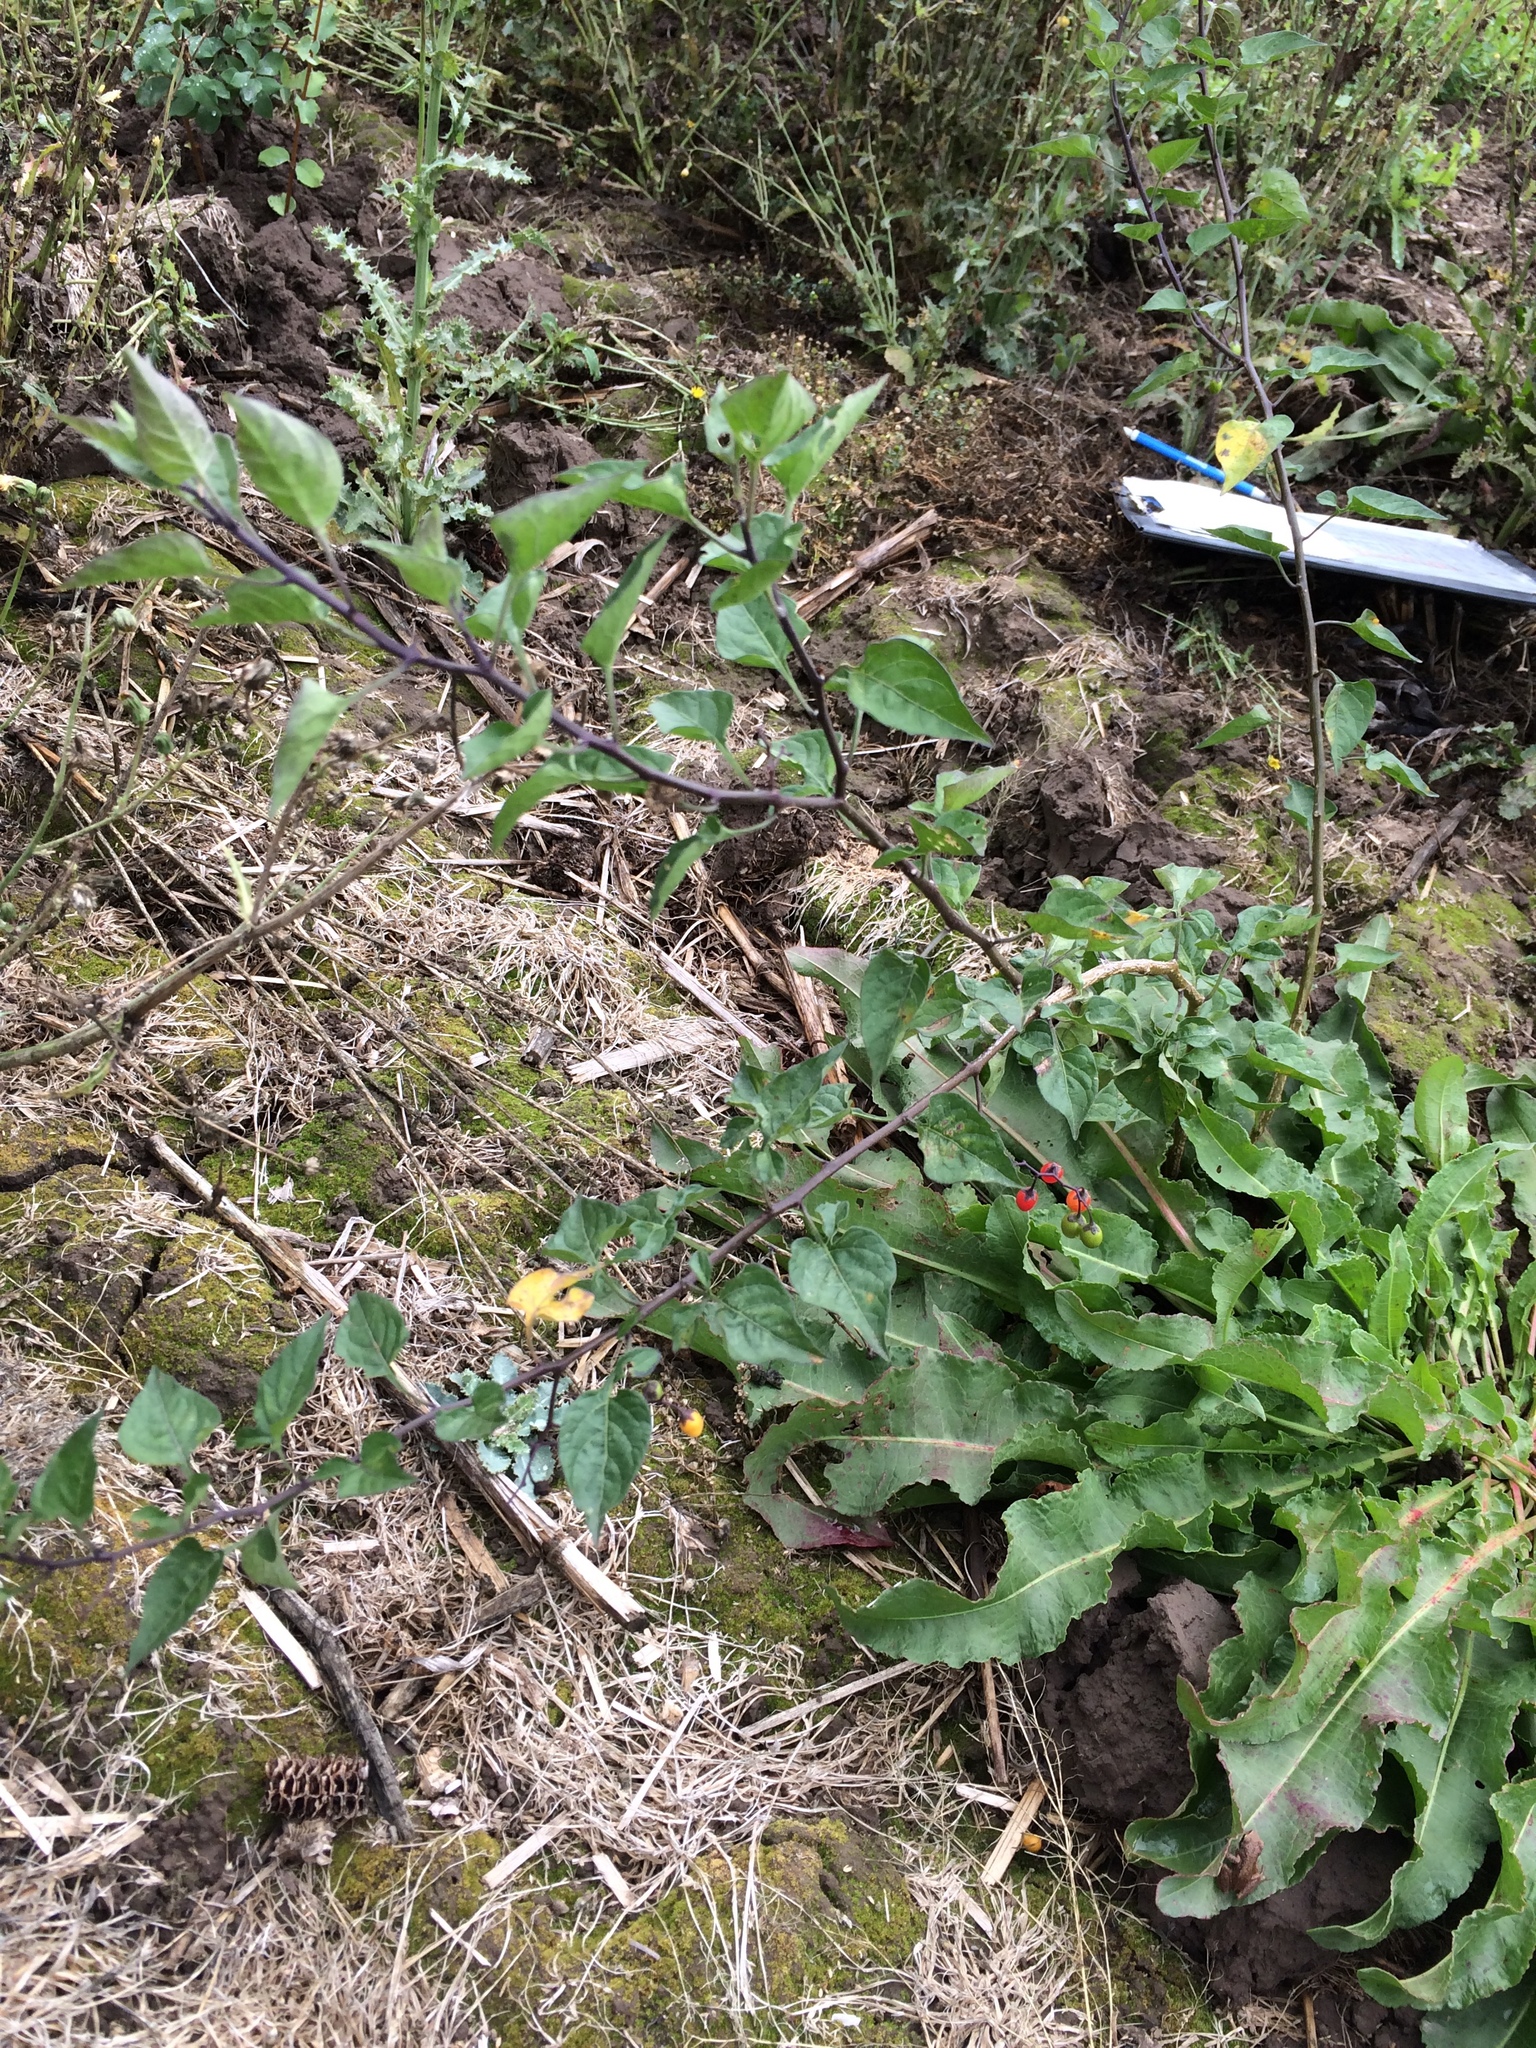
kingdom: Plantae
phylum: Tracheophyta
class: Magnoliopsida
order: Solanales
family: Solanaceae
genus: Solanum
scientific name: Solanum dulcamara
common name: Climbing nightshade
